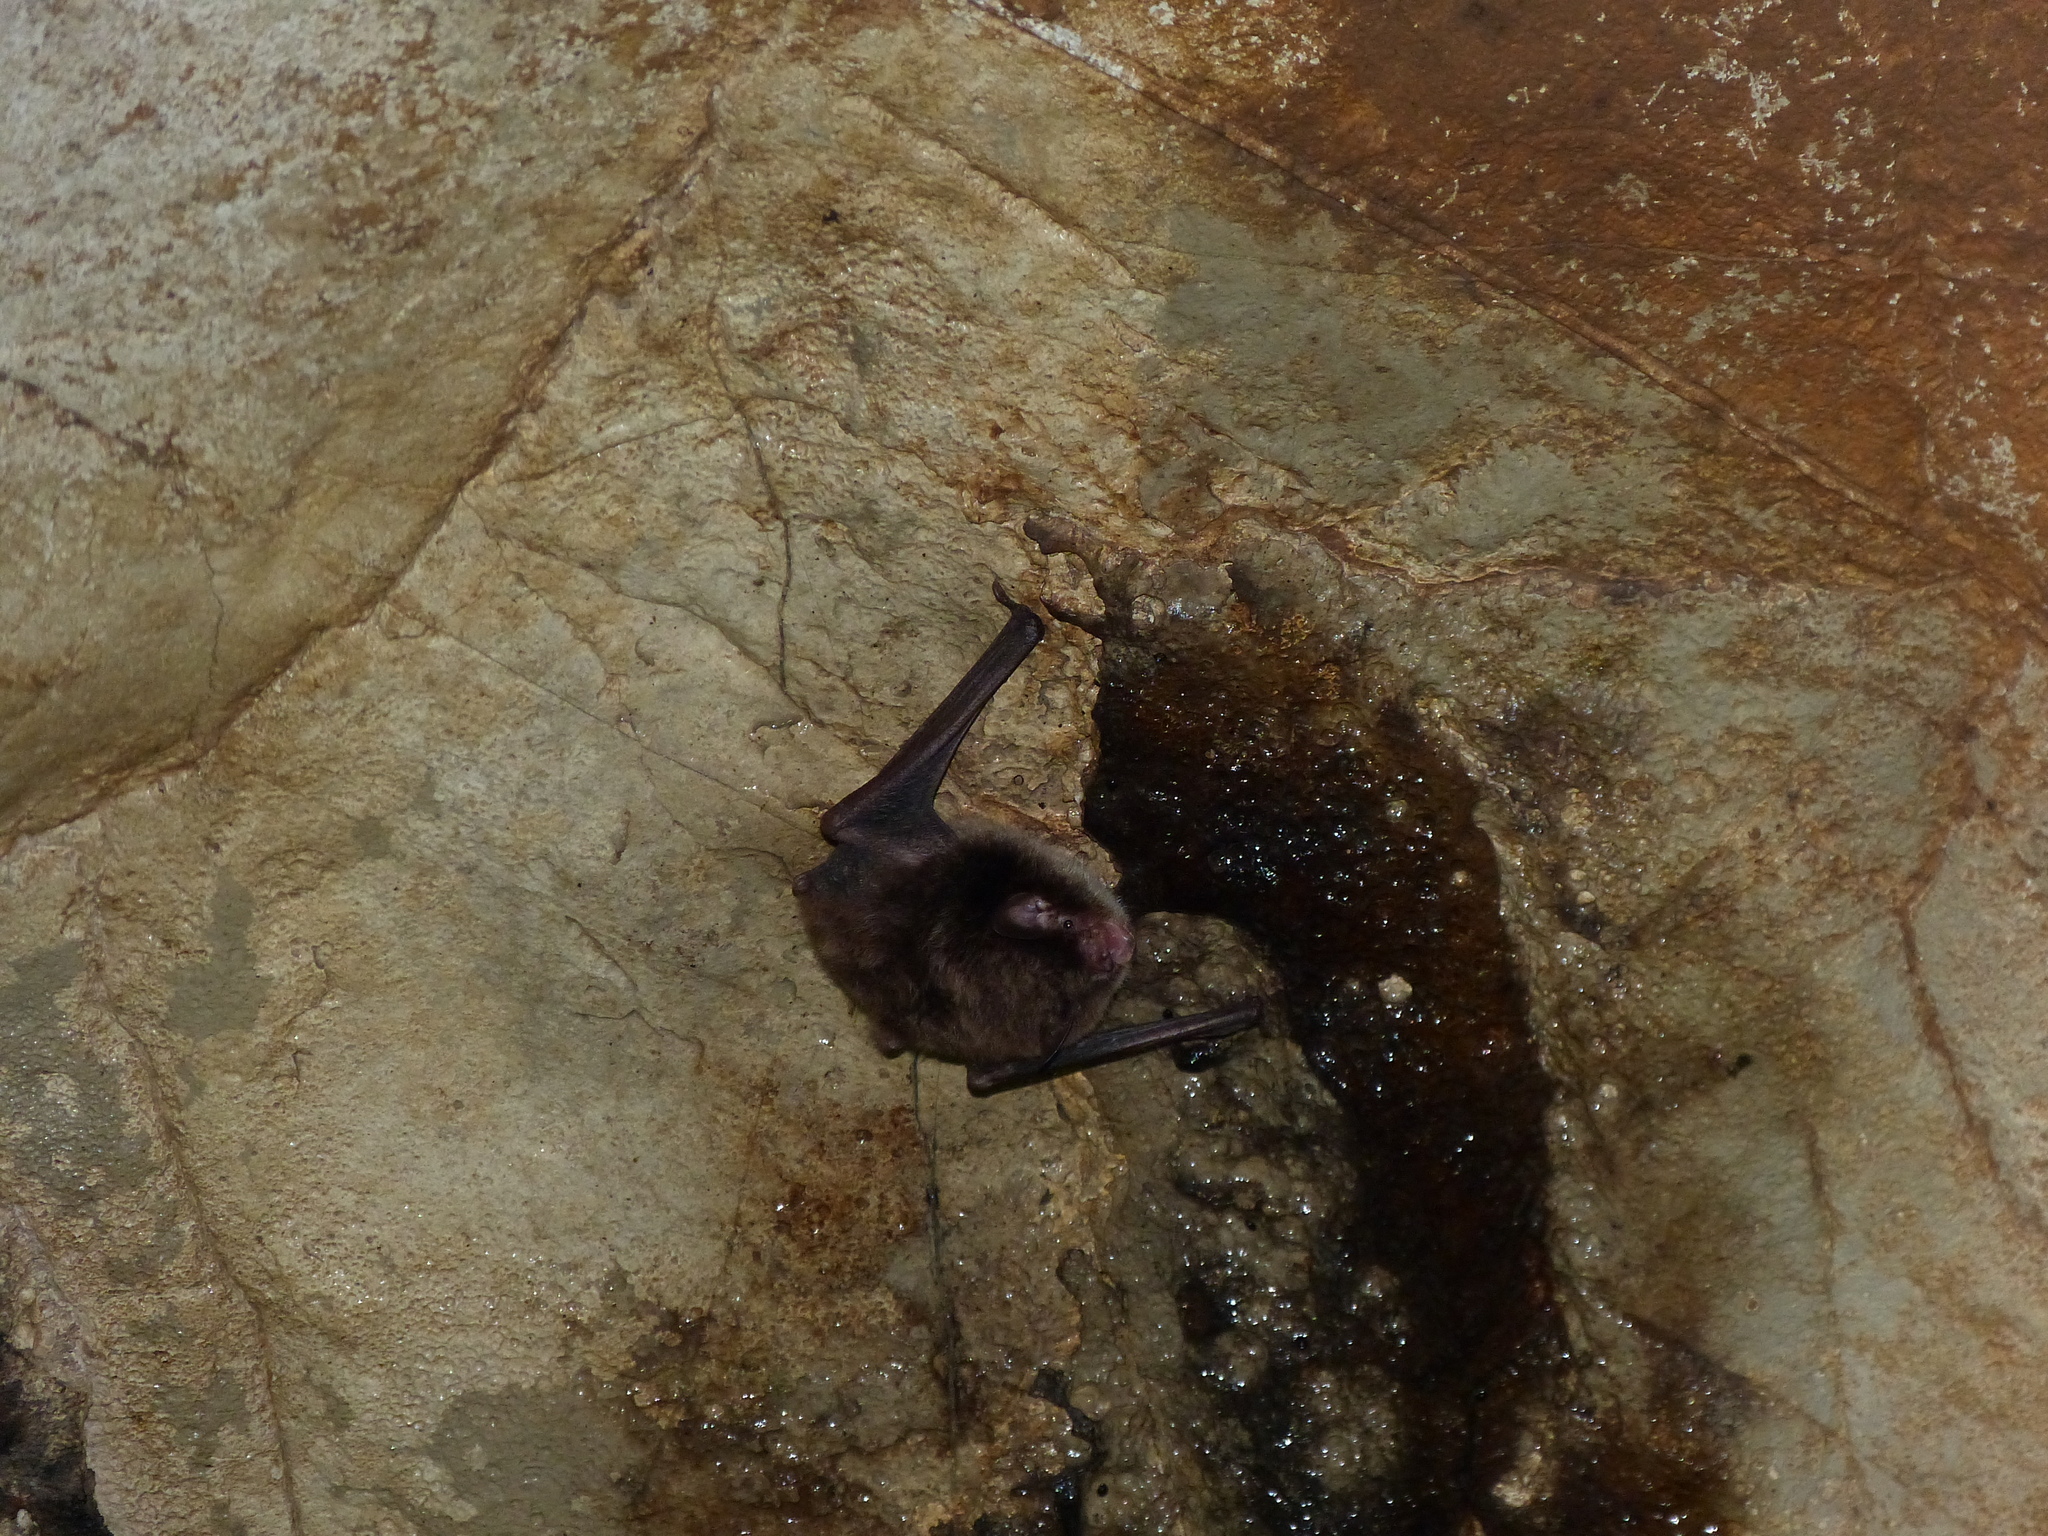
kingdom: Animalia
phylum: Chordata
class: Mammalia
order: Chiroptera
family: Vespertilionidae
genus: Myotis
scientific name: Myotis daubentonii
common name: Daubenton's myotis
